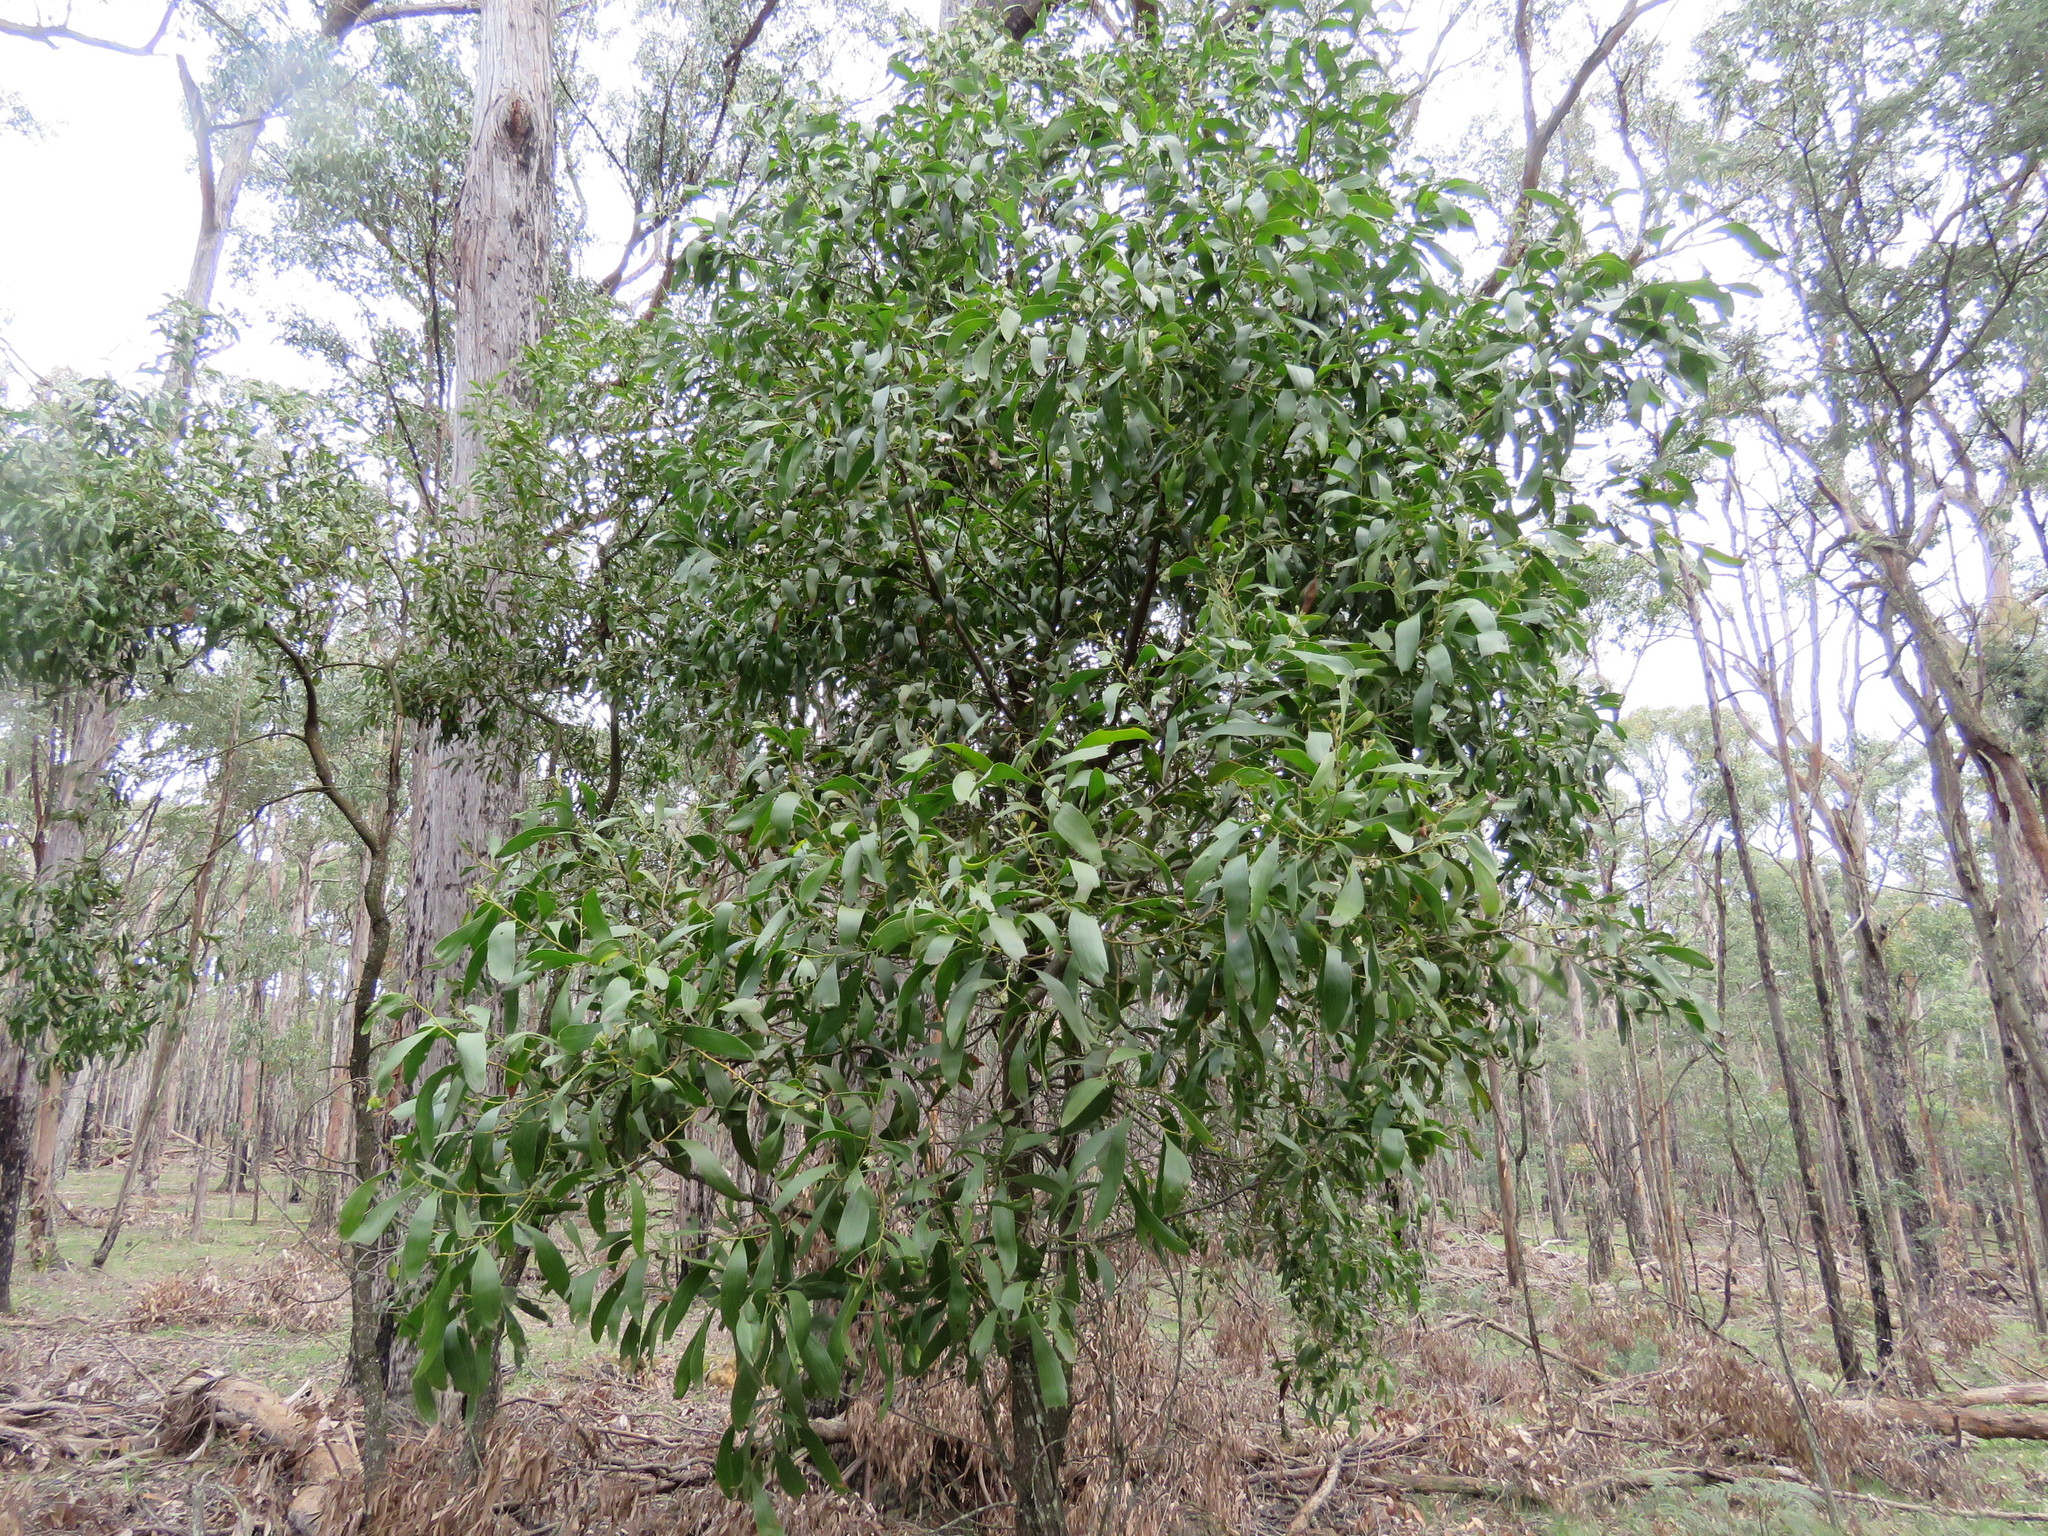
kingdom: Plantae
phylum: Tracheophyta
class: Magnoliopsida
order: Fabales
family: Fabaceae
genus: Acacia
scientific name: Acacia melanoxylon
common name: Blackwood
